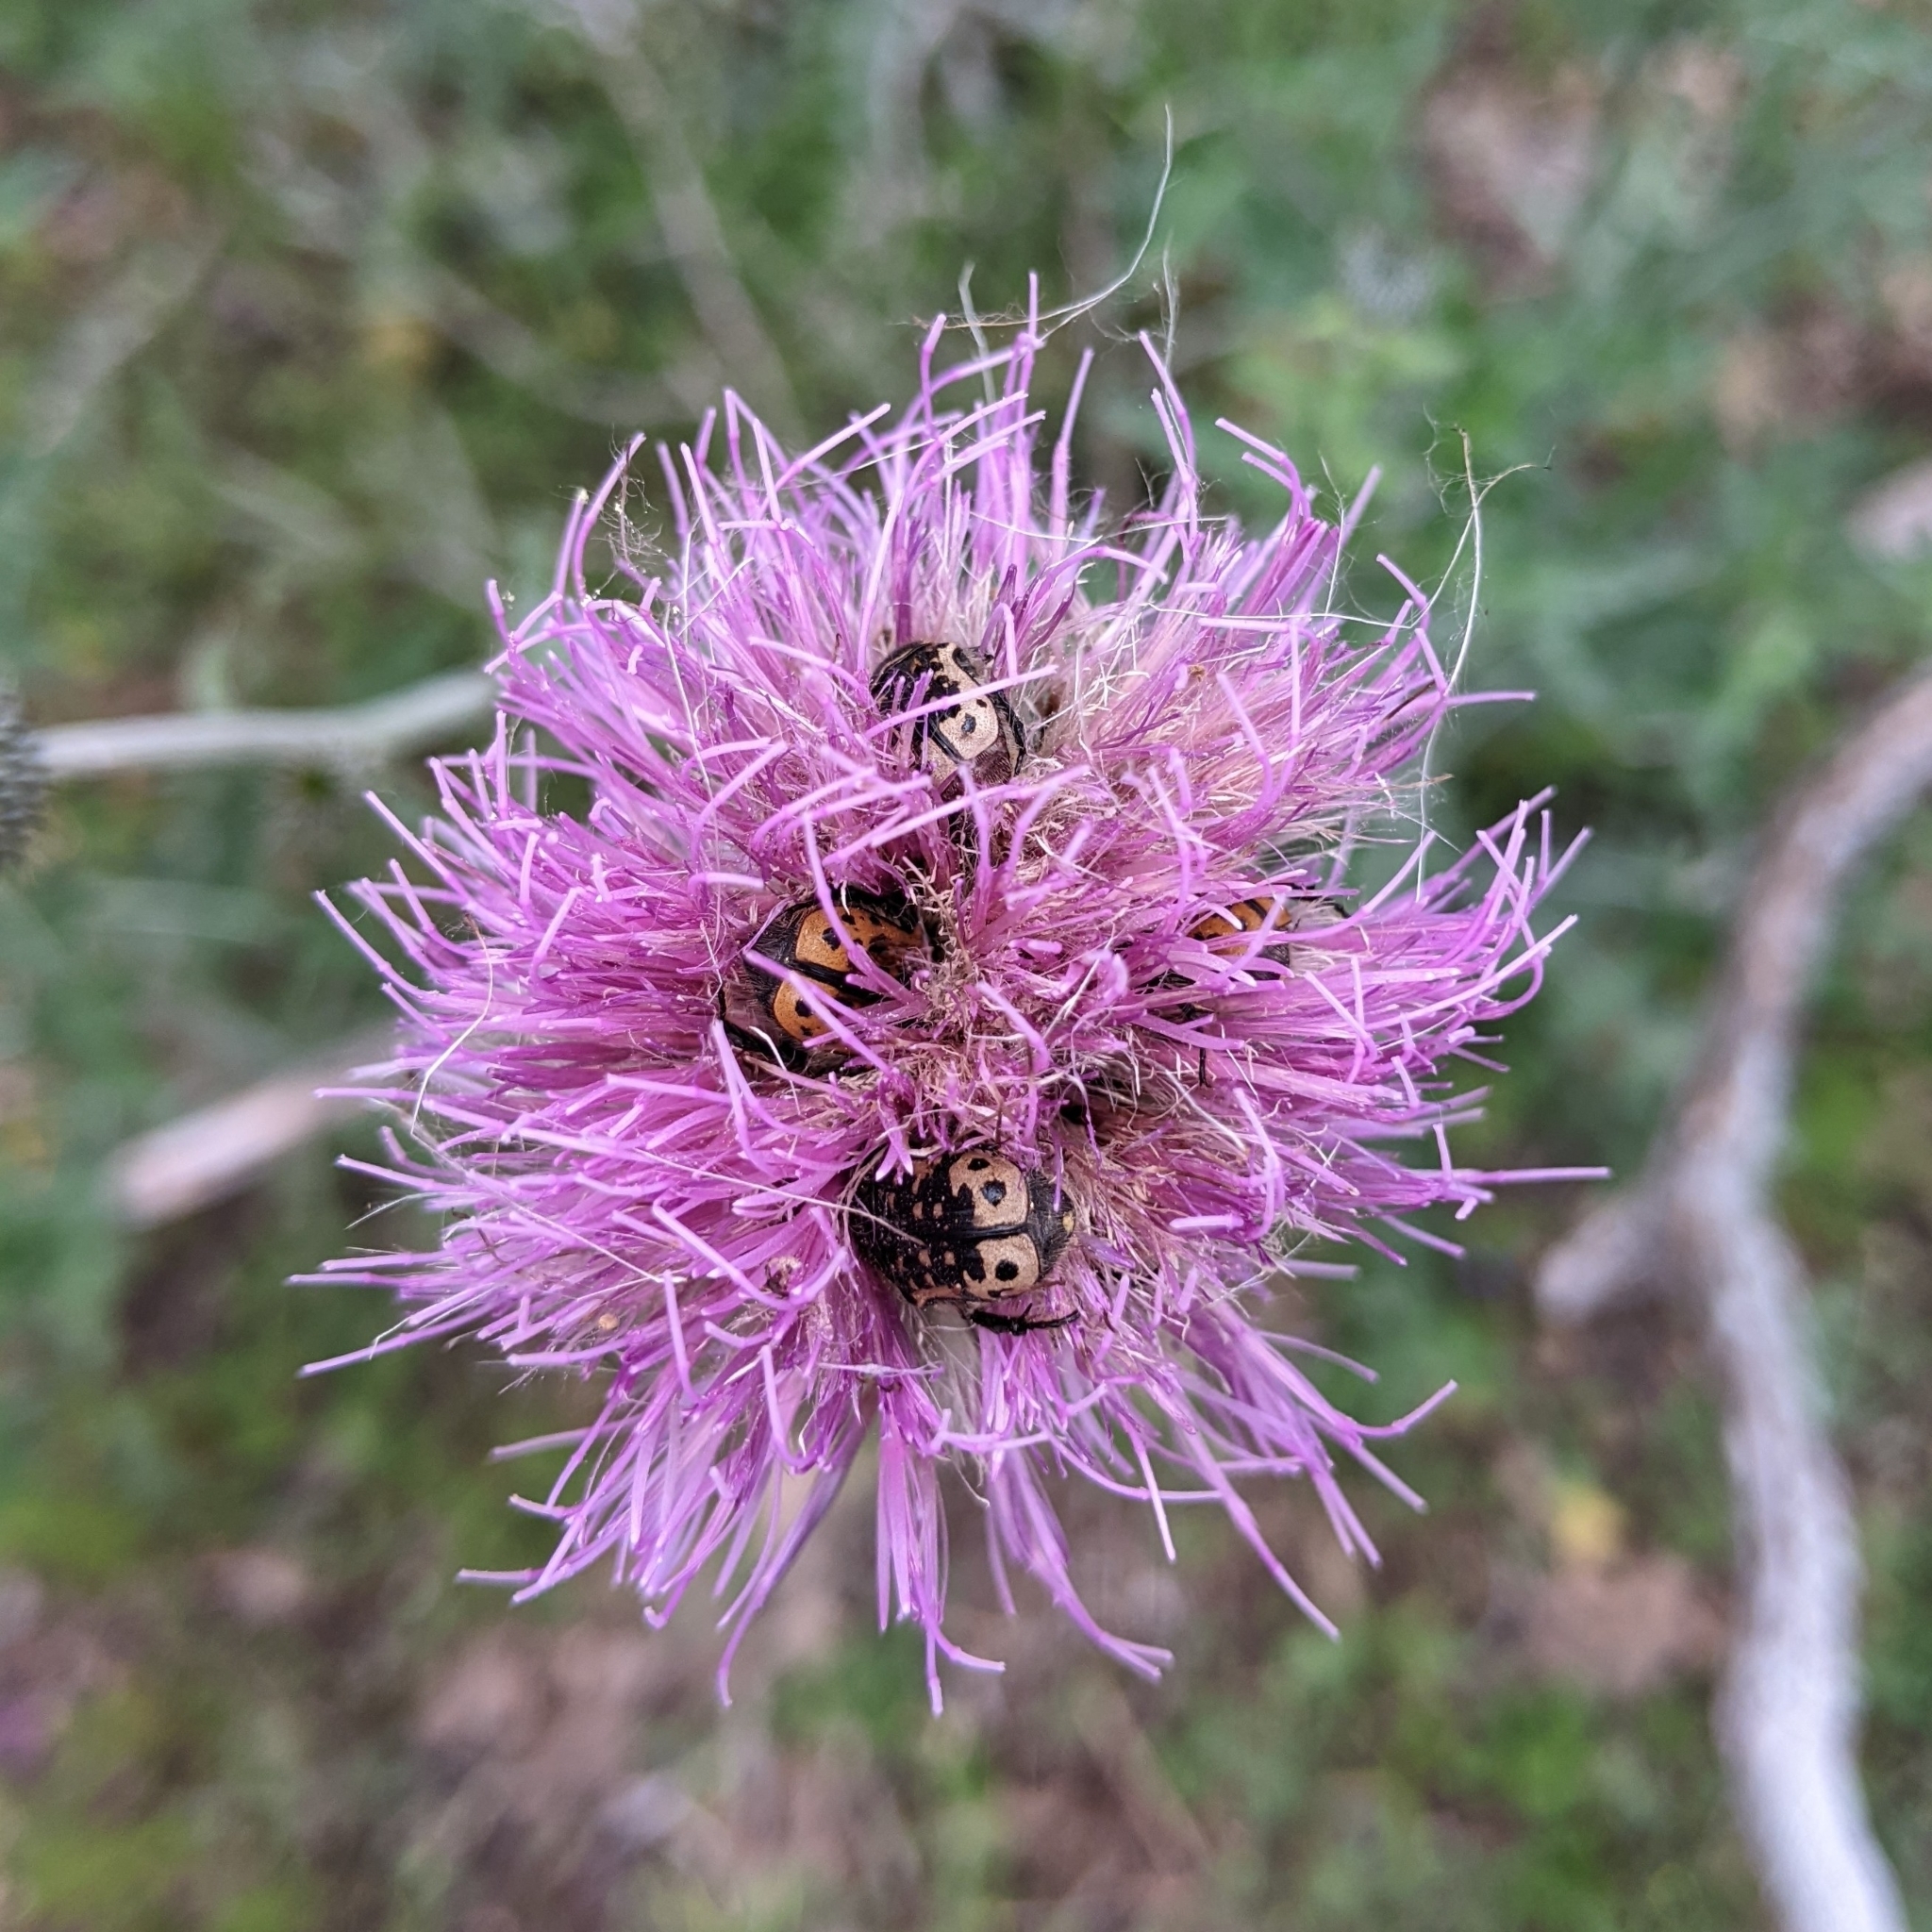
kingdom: Animalia
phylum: Arthropoda
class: Insecta
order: Coleoptera
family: Scarabaeidae
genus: Euphoria
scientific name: Euphoria kernii
